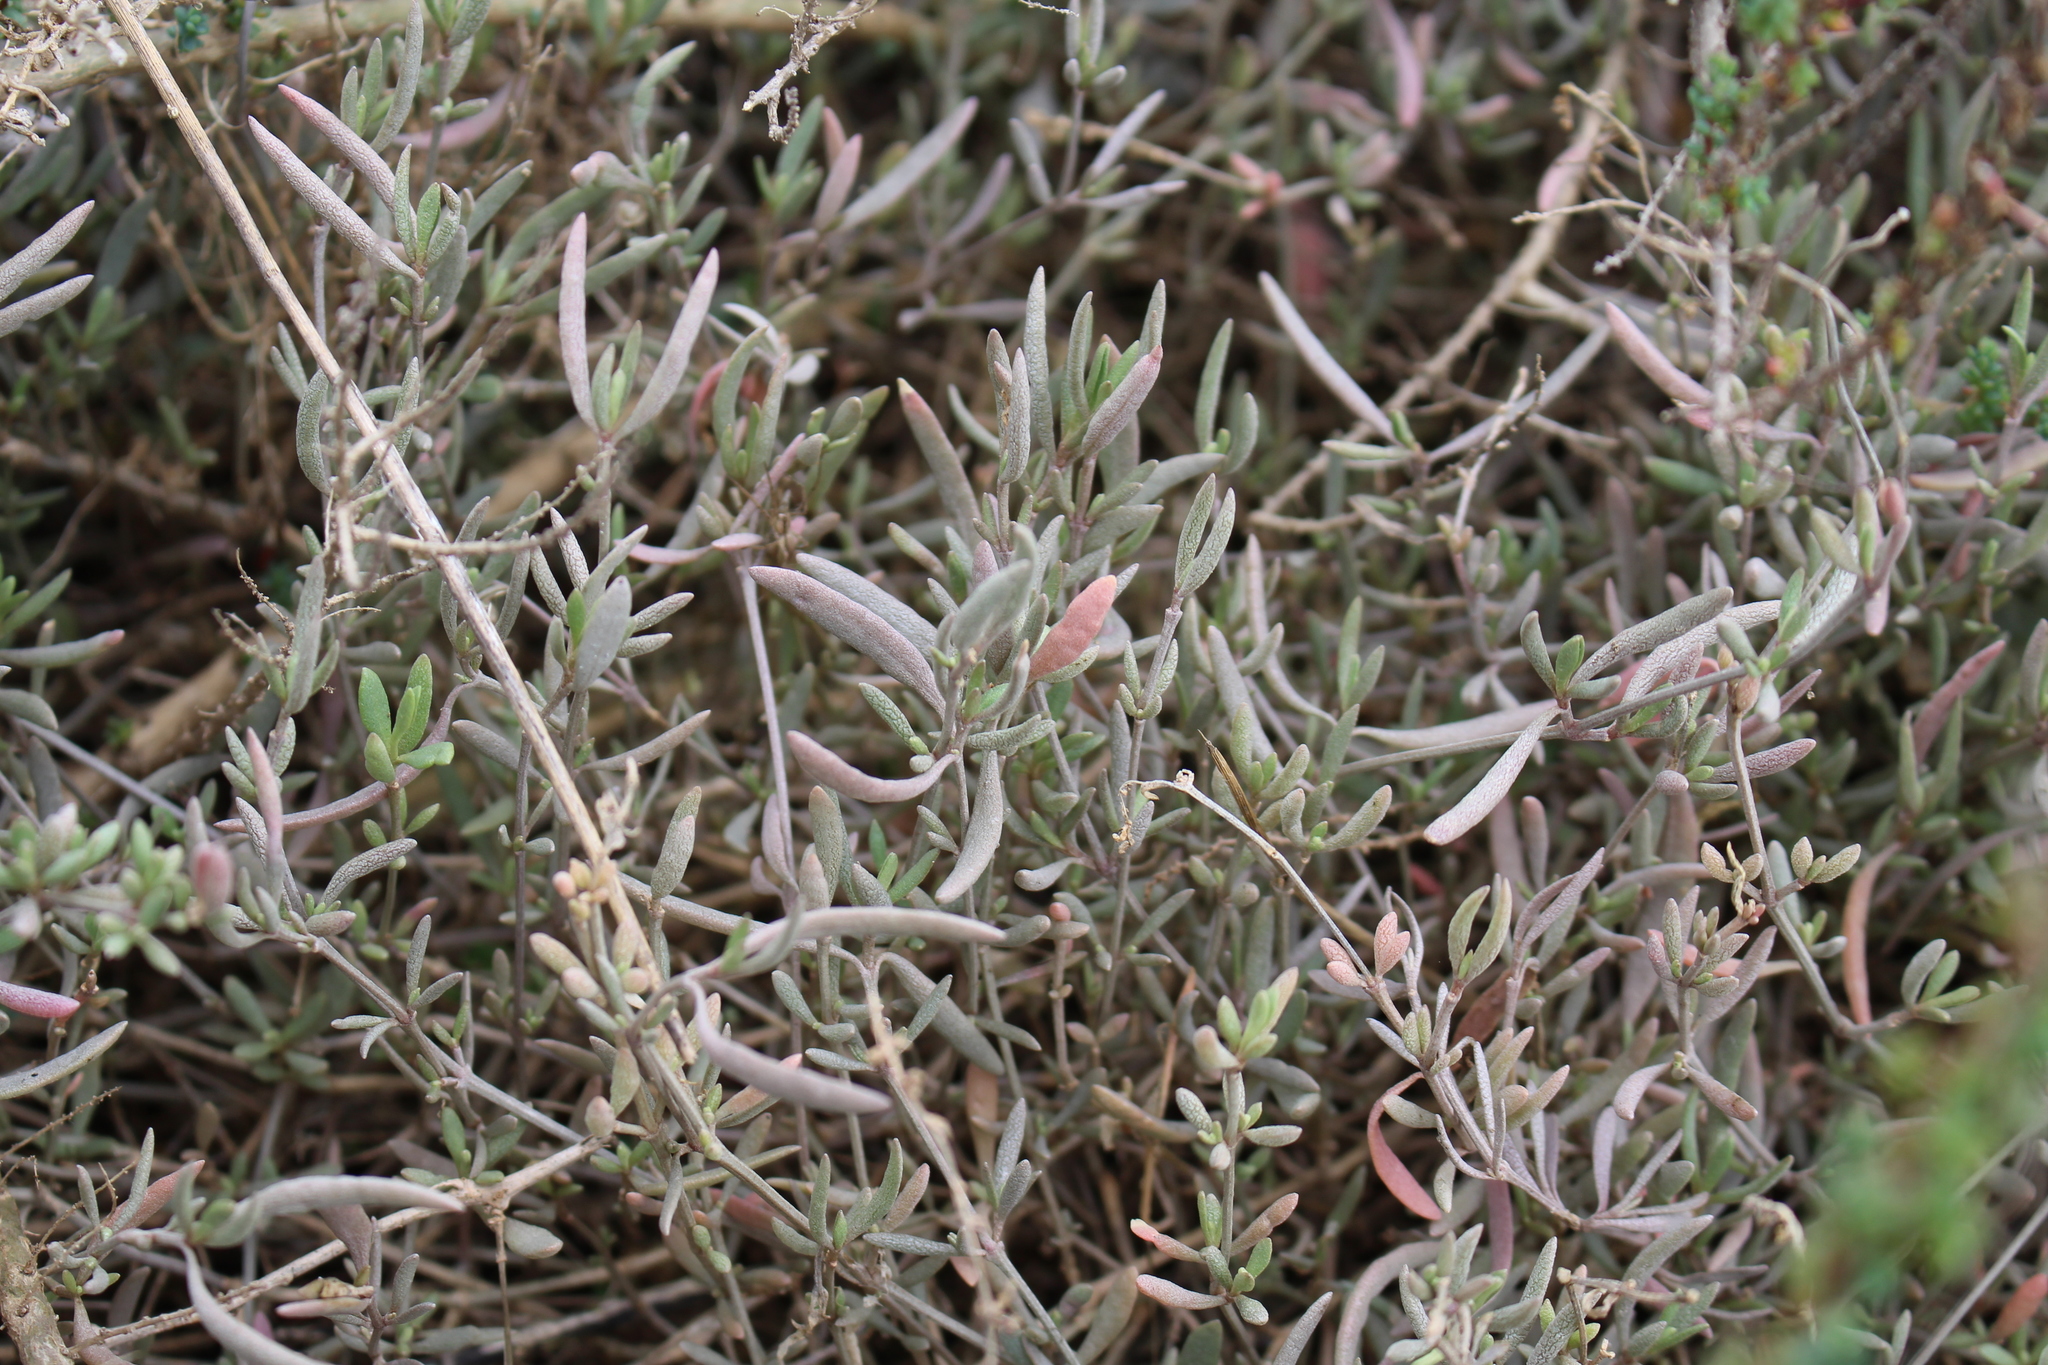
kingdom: Plantae
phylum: Tracheophyta
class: Magnoliopsida
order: Caryophyllales
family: Amaranthaceae
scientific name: Amaranthaceae
